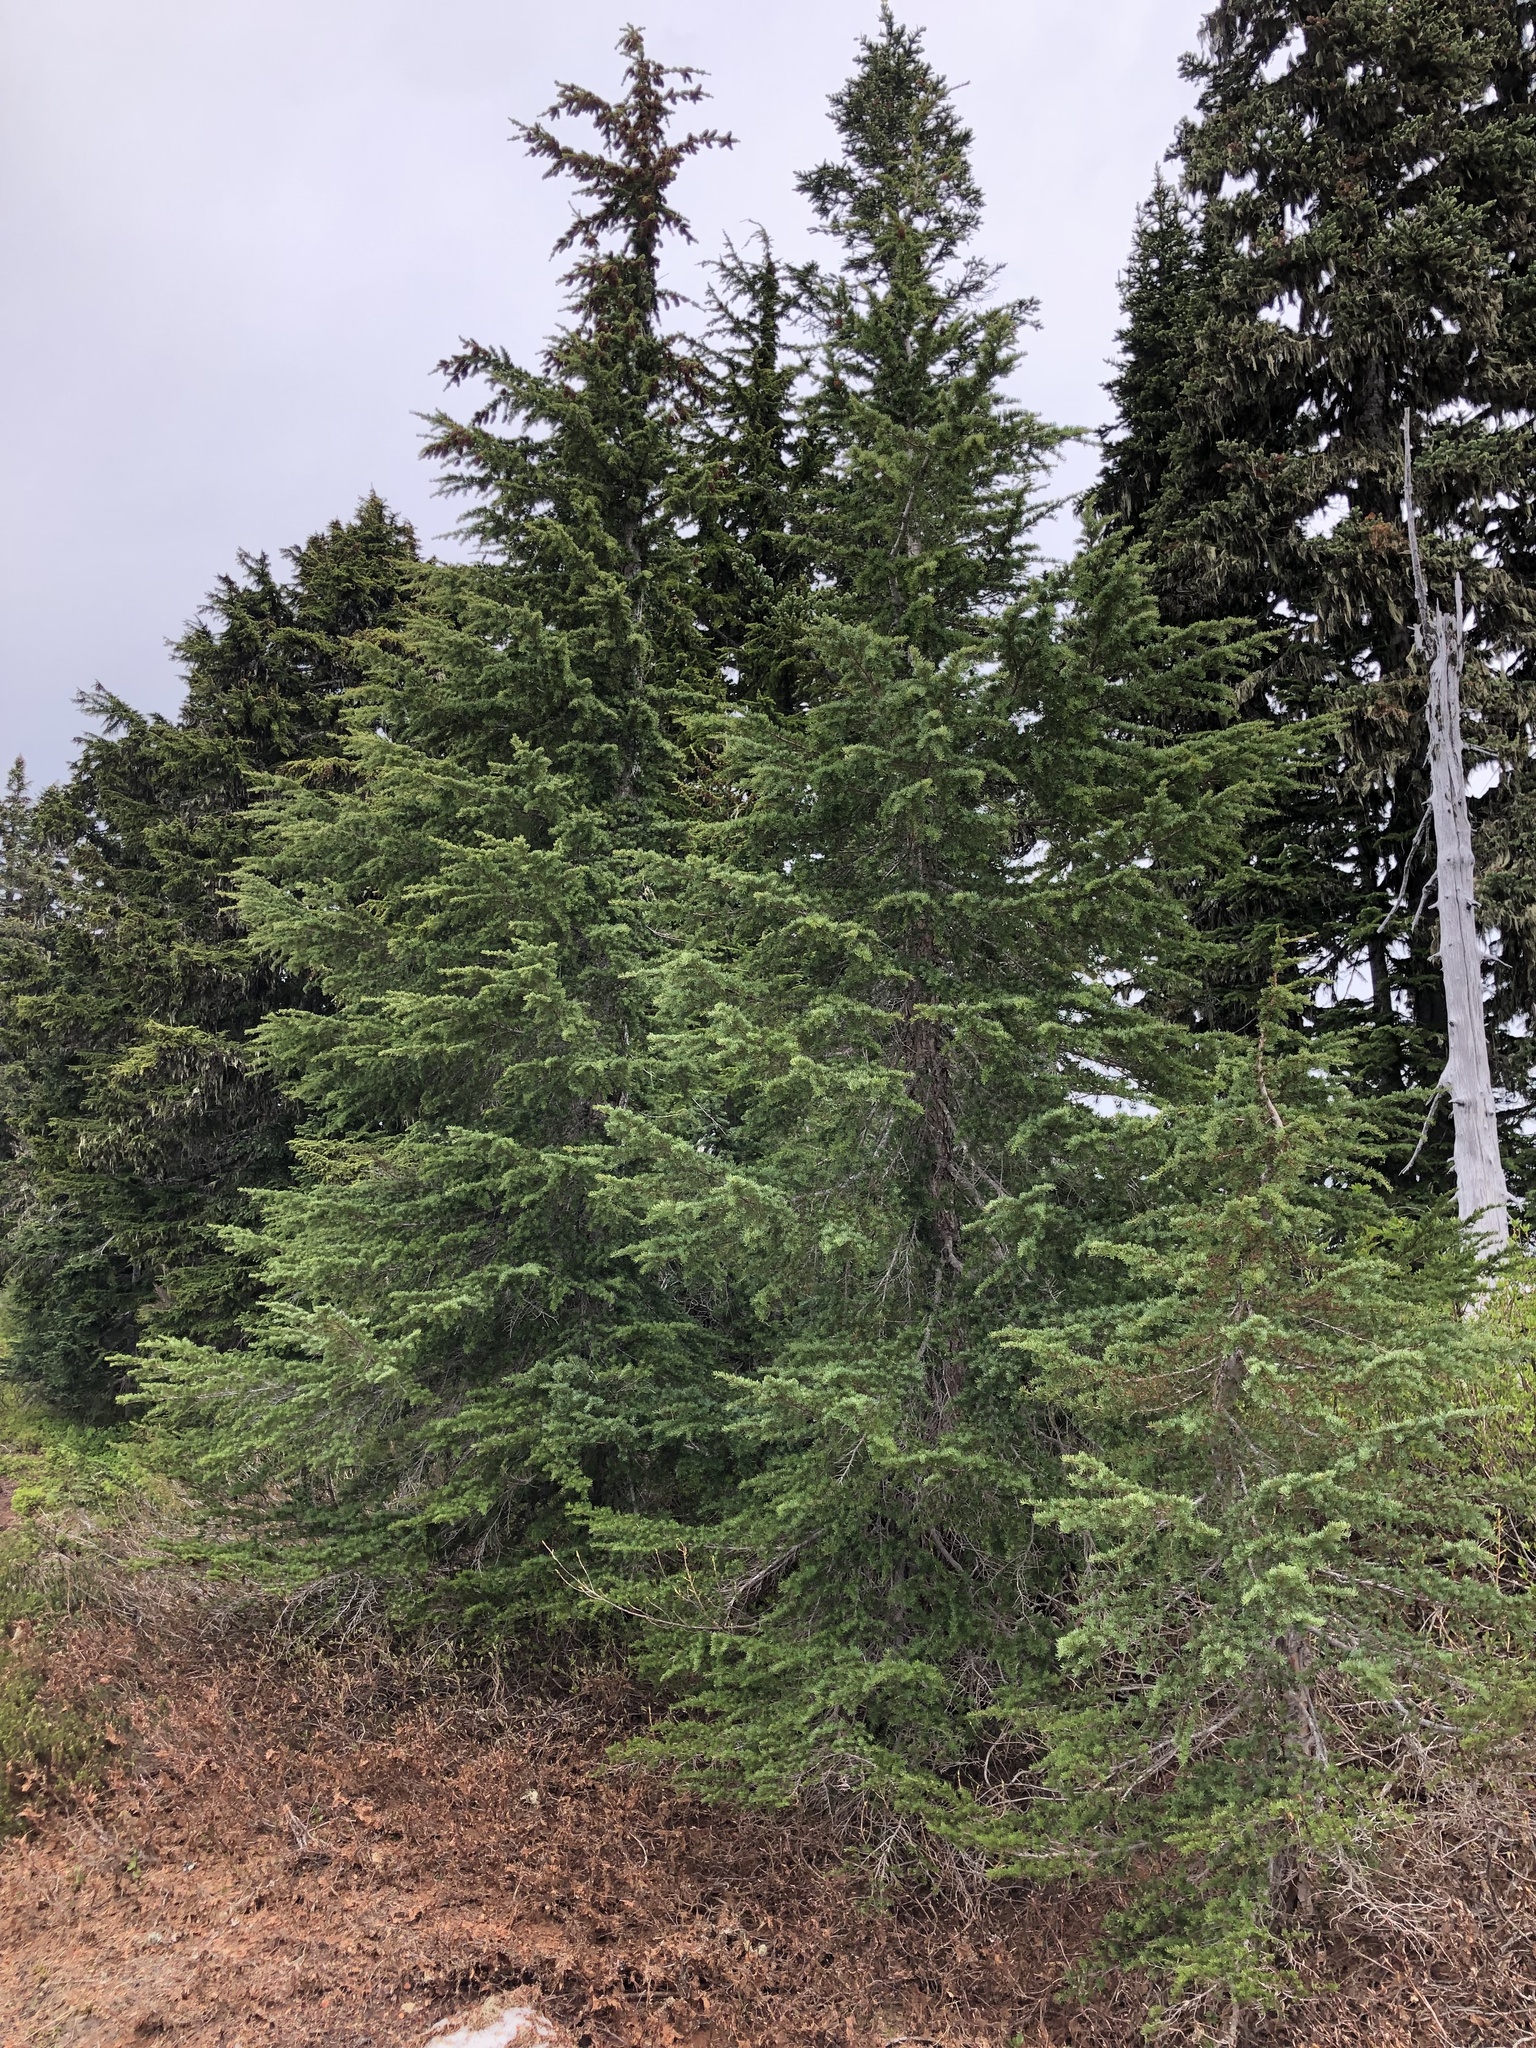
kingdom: Plantae
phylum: Tracheophyta
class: Pinopsida
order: Pinales
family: Pinaceae
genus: Tsuga
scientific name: Tsuga mertensiana
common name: Mountain hemlock
